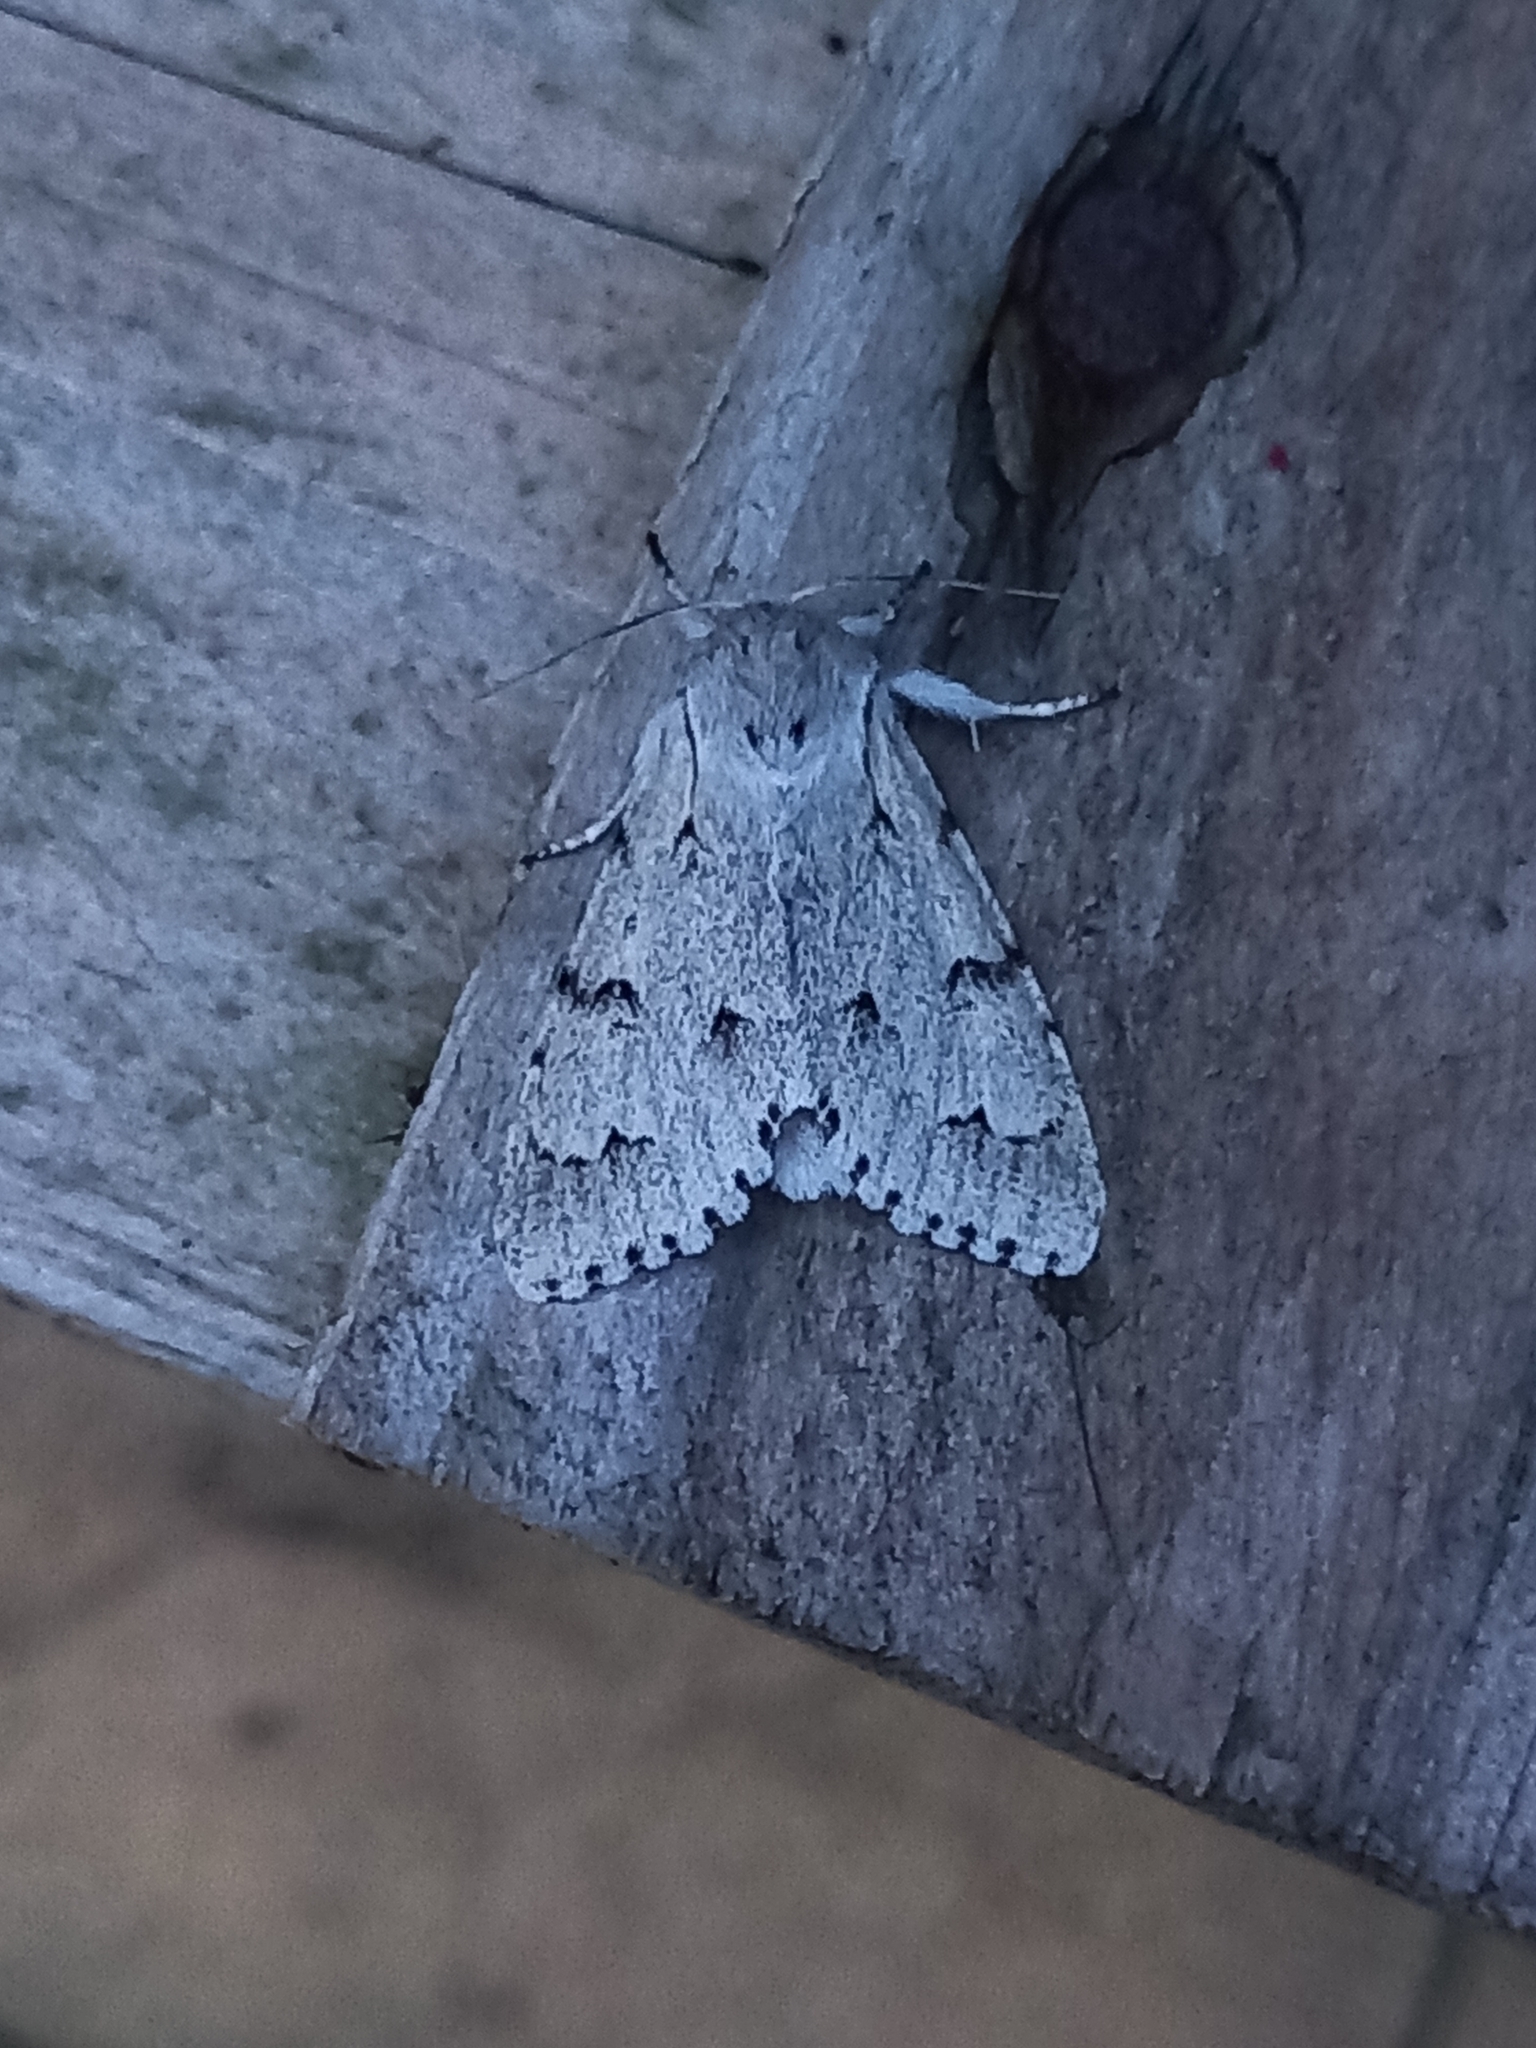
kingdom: Animalia
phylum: Arthropoda
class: Insecta
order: Lepidoptera
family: Noctuidae
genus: Acronicta
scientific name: Acronicta leporina
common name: Miller
